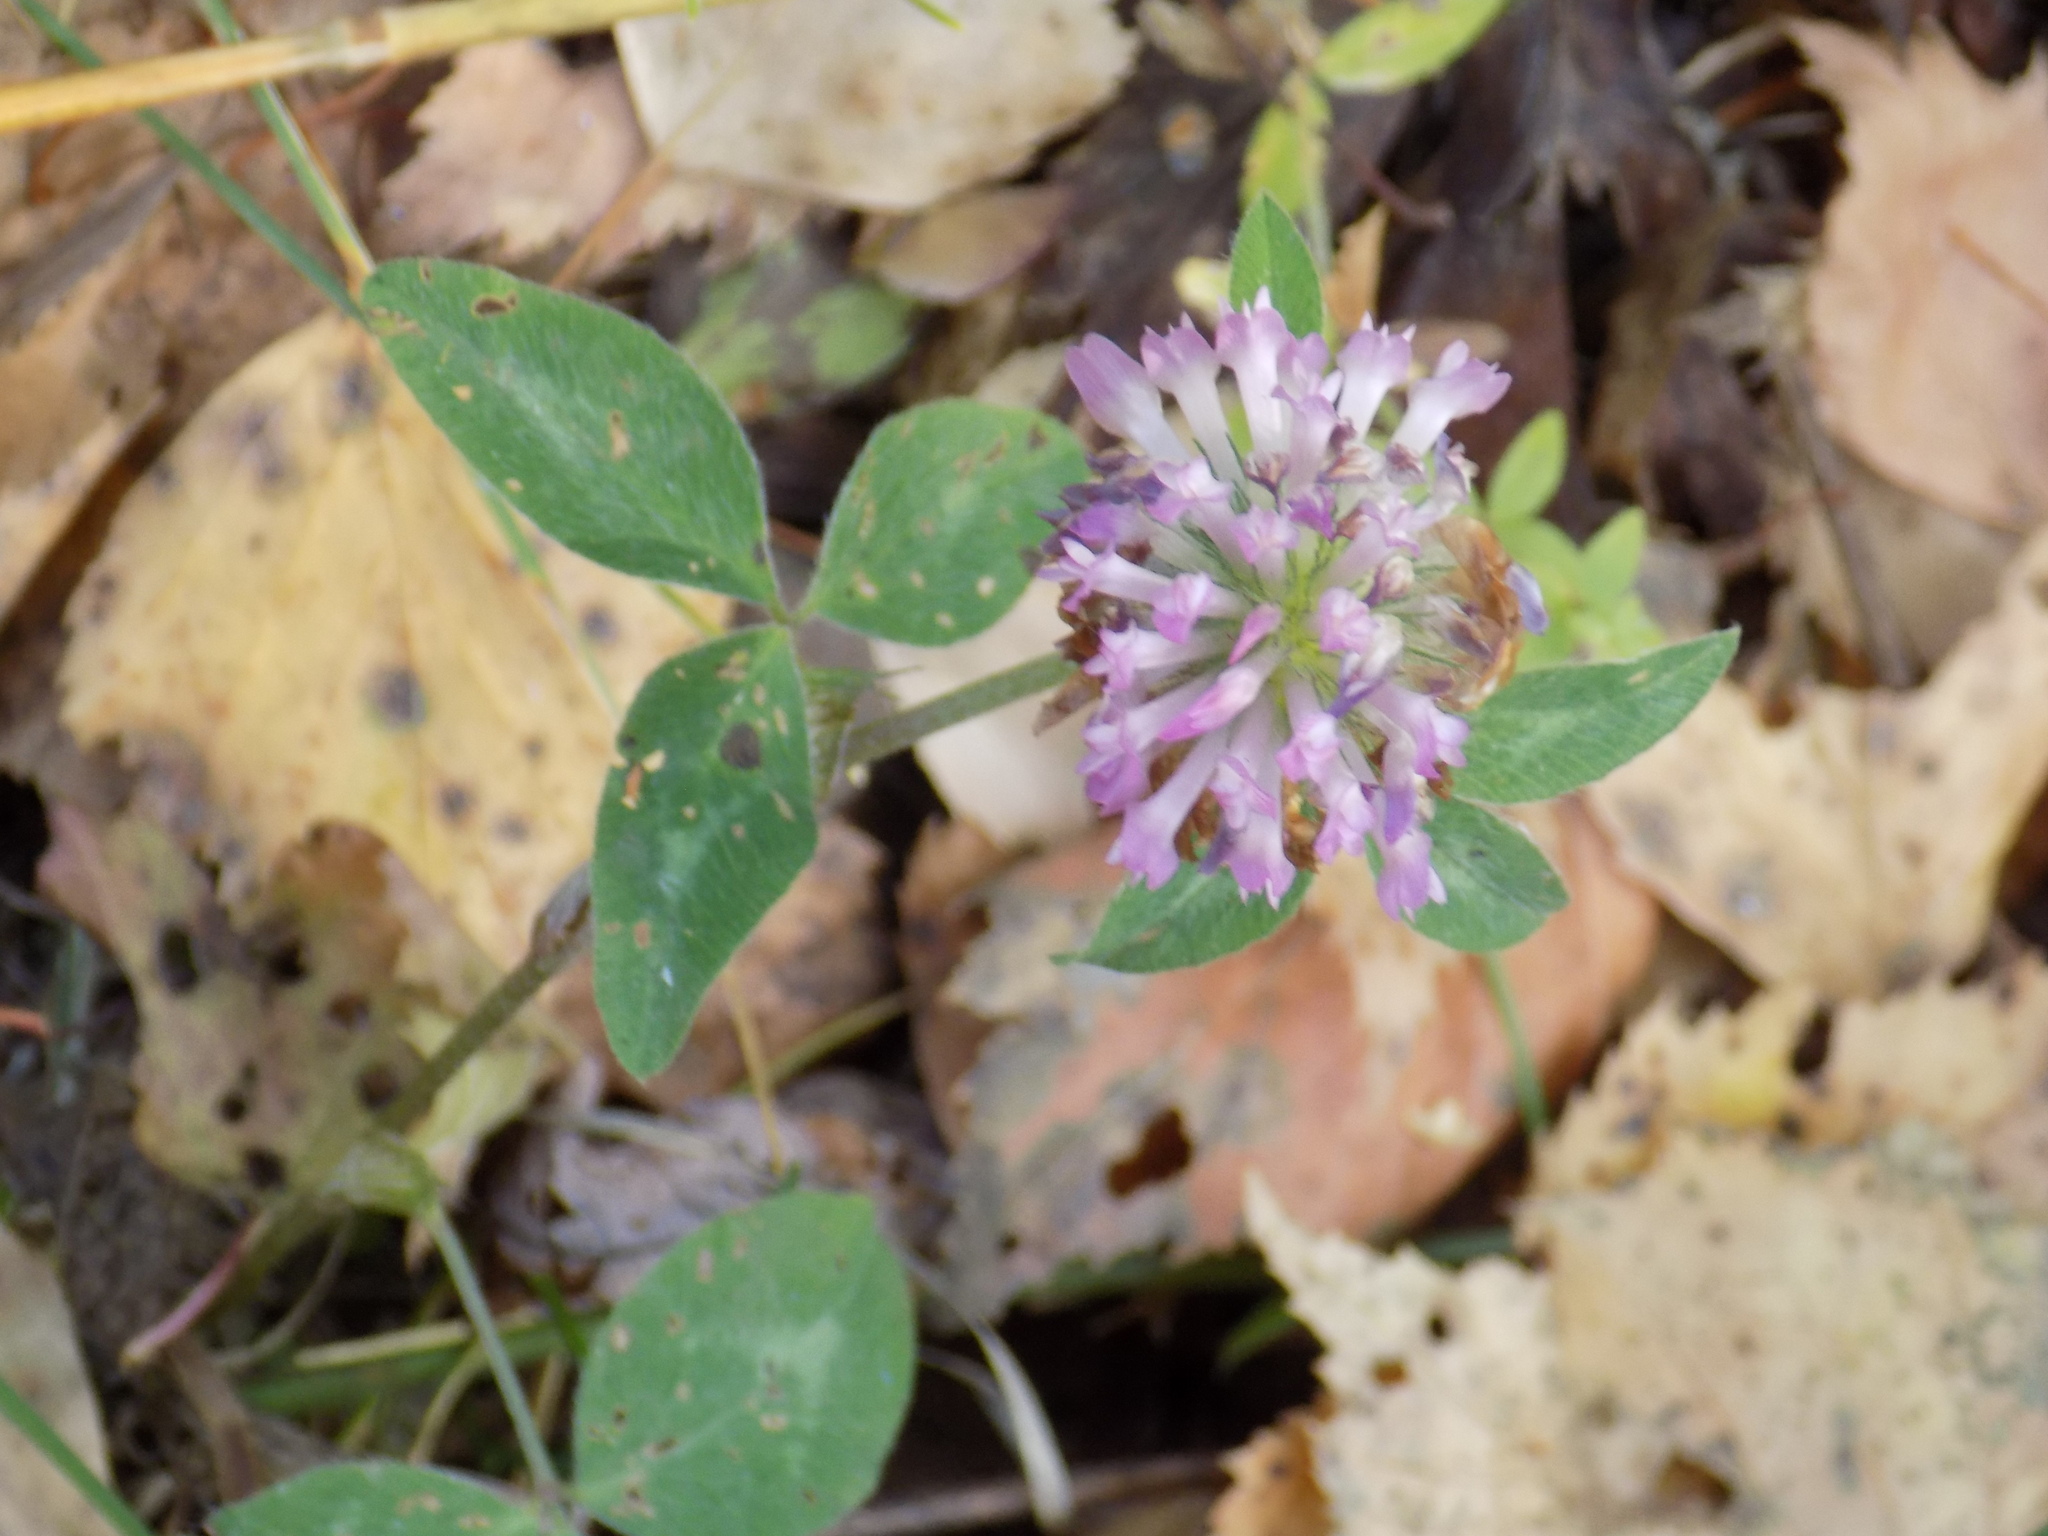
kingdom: Plantae
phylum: Tracheophyta
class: Magnoliopsida
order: Fabales
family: Fabaceae
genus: Trifolium
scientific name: Trifolium pratense
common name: Red clover
